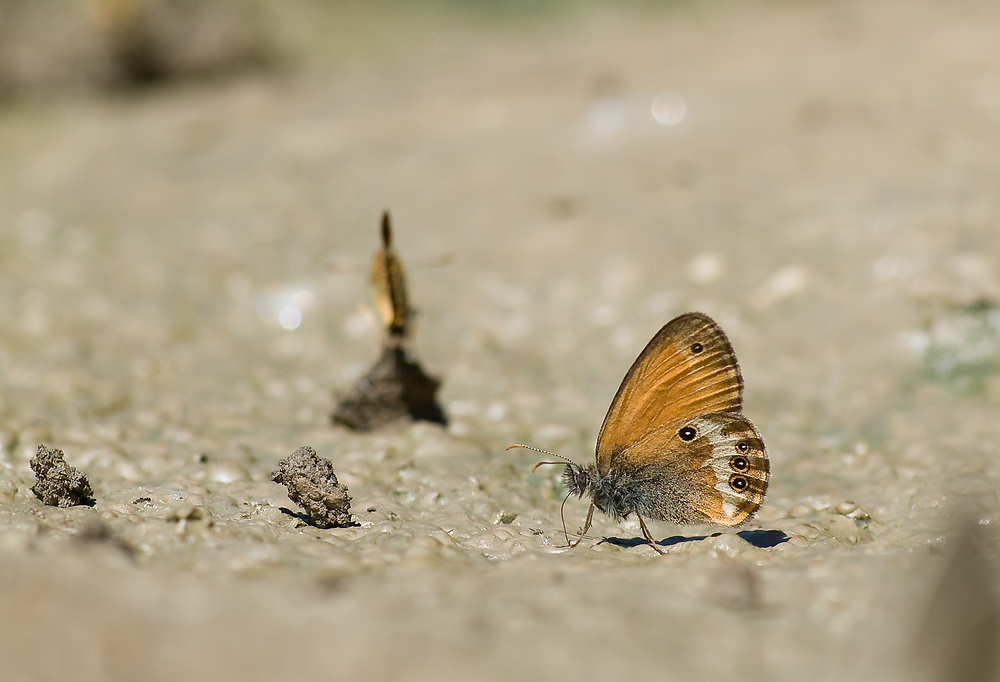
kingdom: Animalia
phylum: Arthropoda
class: Insecta
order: Lepidoptera
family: Nymphalidae
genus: Coenonympha
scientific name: Coenonympha arcania
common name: Pearly heath
